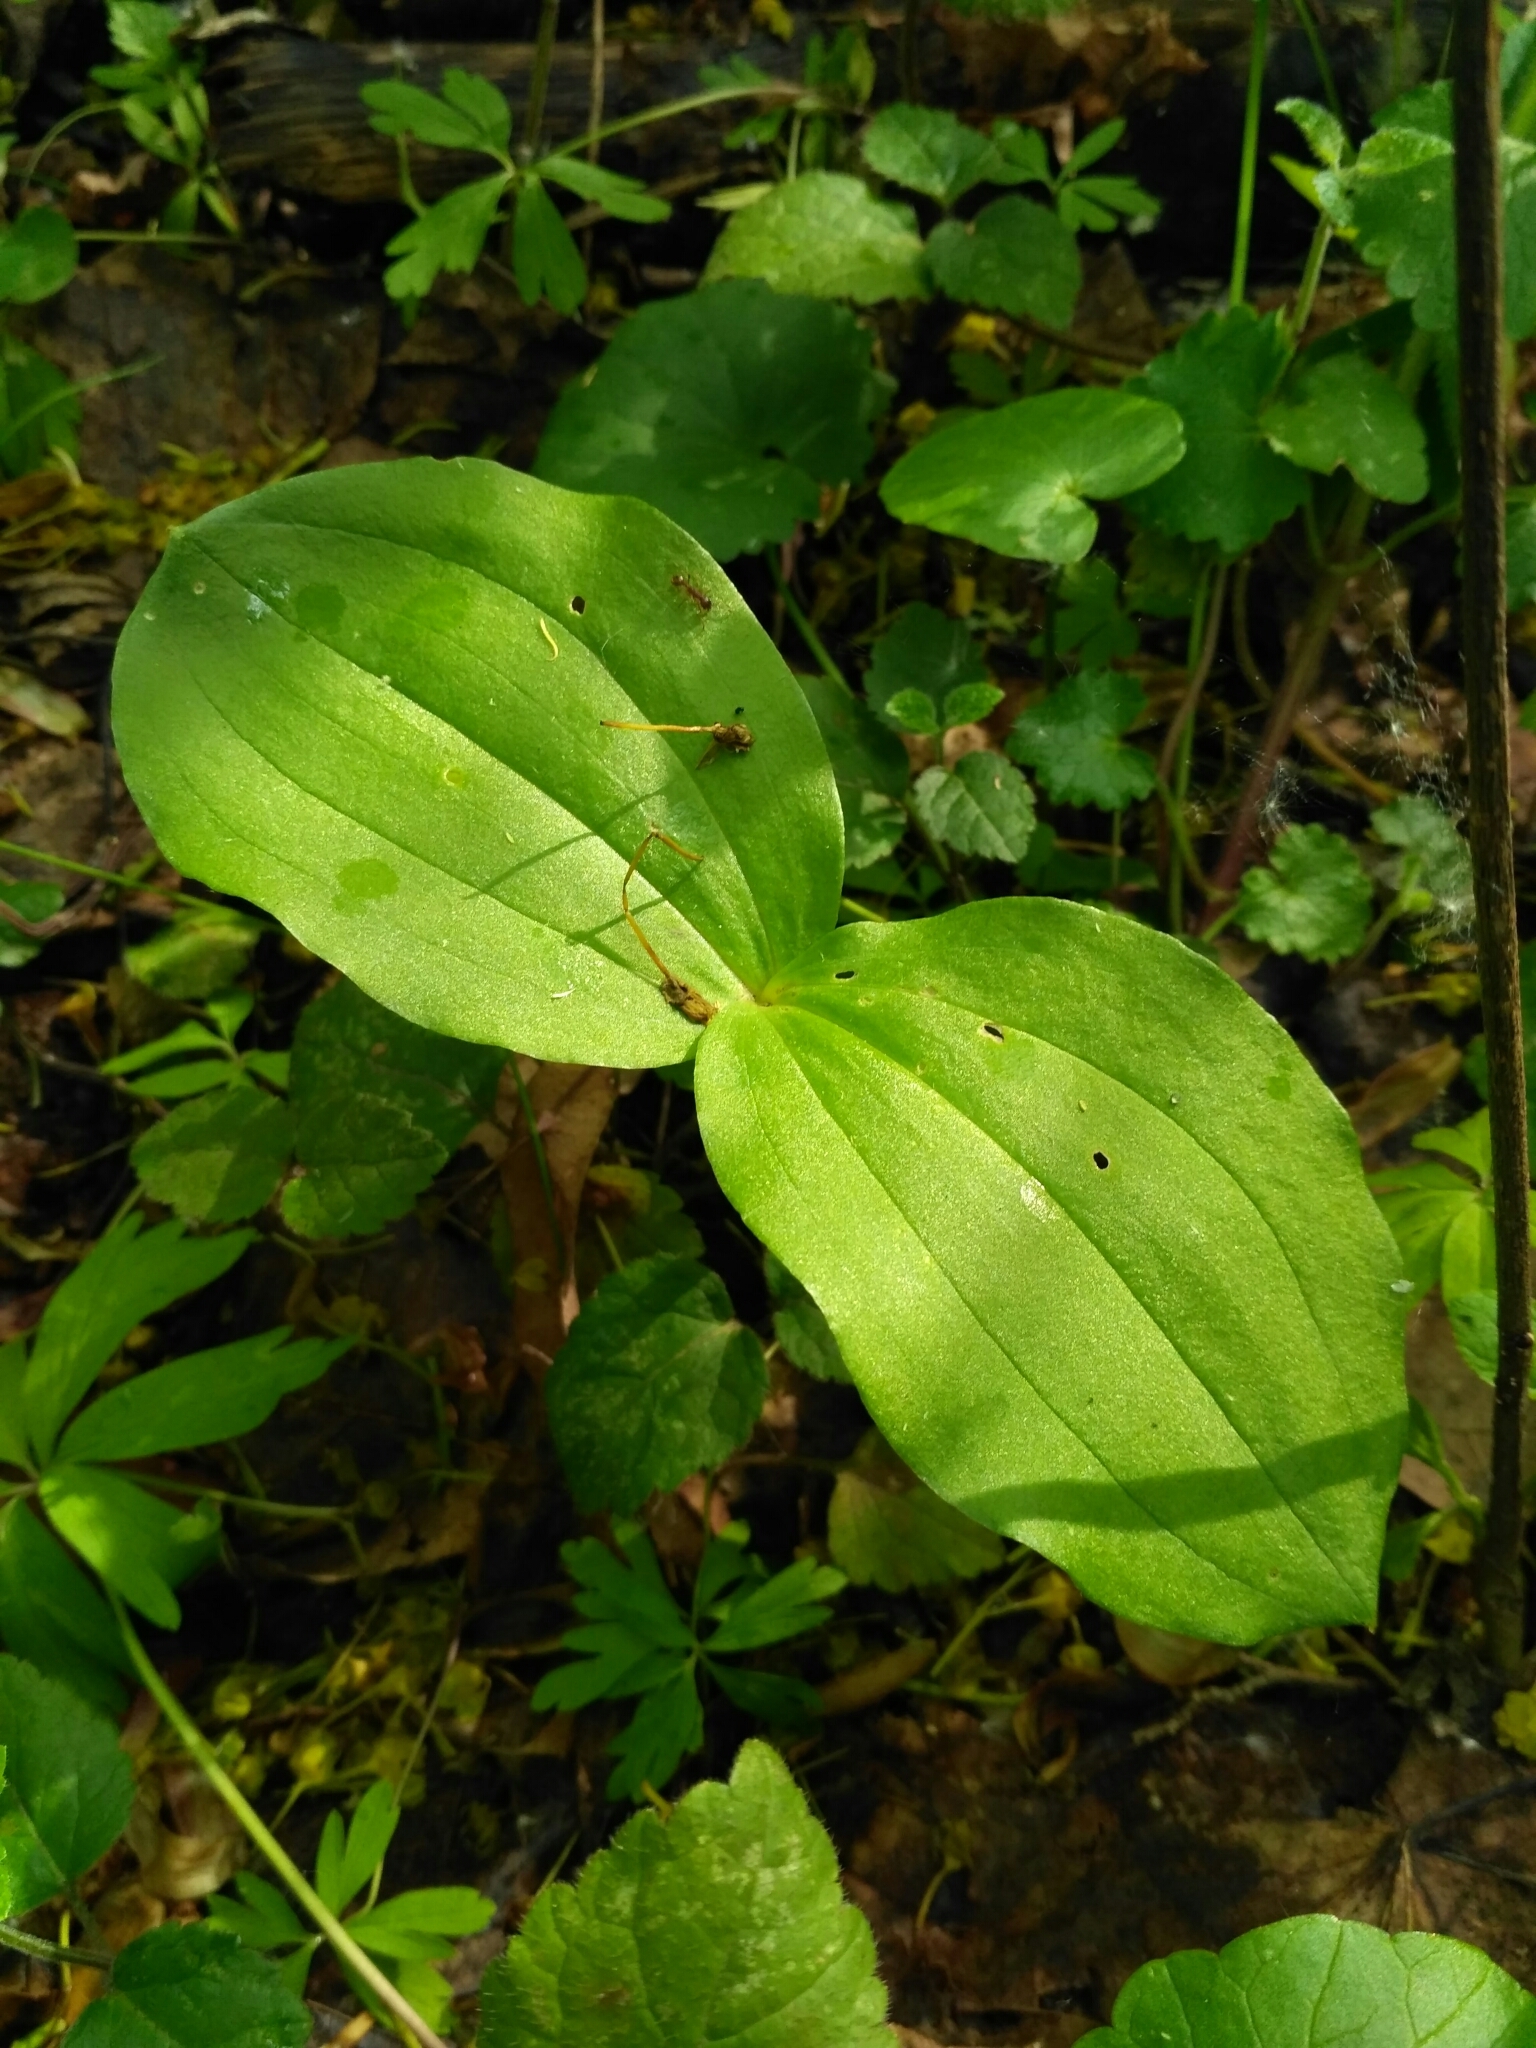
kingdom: Plantae
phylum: Tracheophyta
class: Liliopsida
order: Asparagales
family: Orchidaceae
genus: Neottia
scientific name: Neottia ovata
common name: Common twayblade
